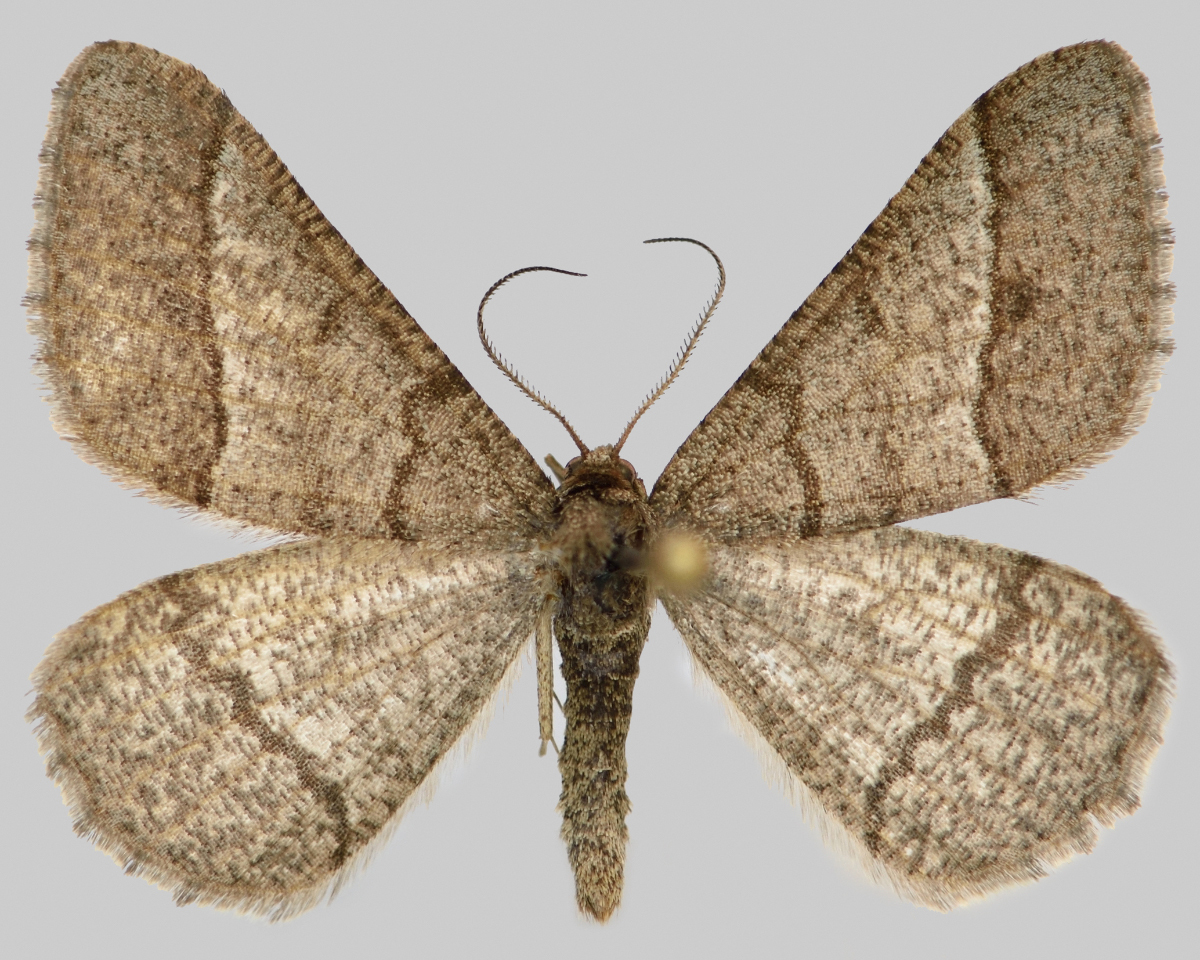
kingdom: Animalia
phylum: Arthropoda
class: Insecta
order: Lepidoptera
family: Geometridae
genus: Tephrina
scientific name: Tephrina murinaria
